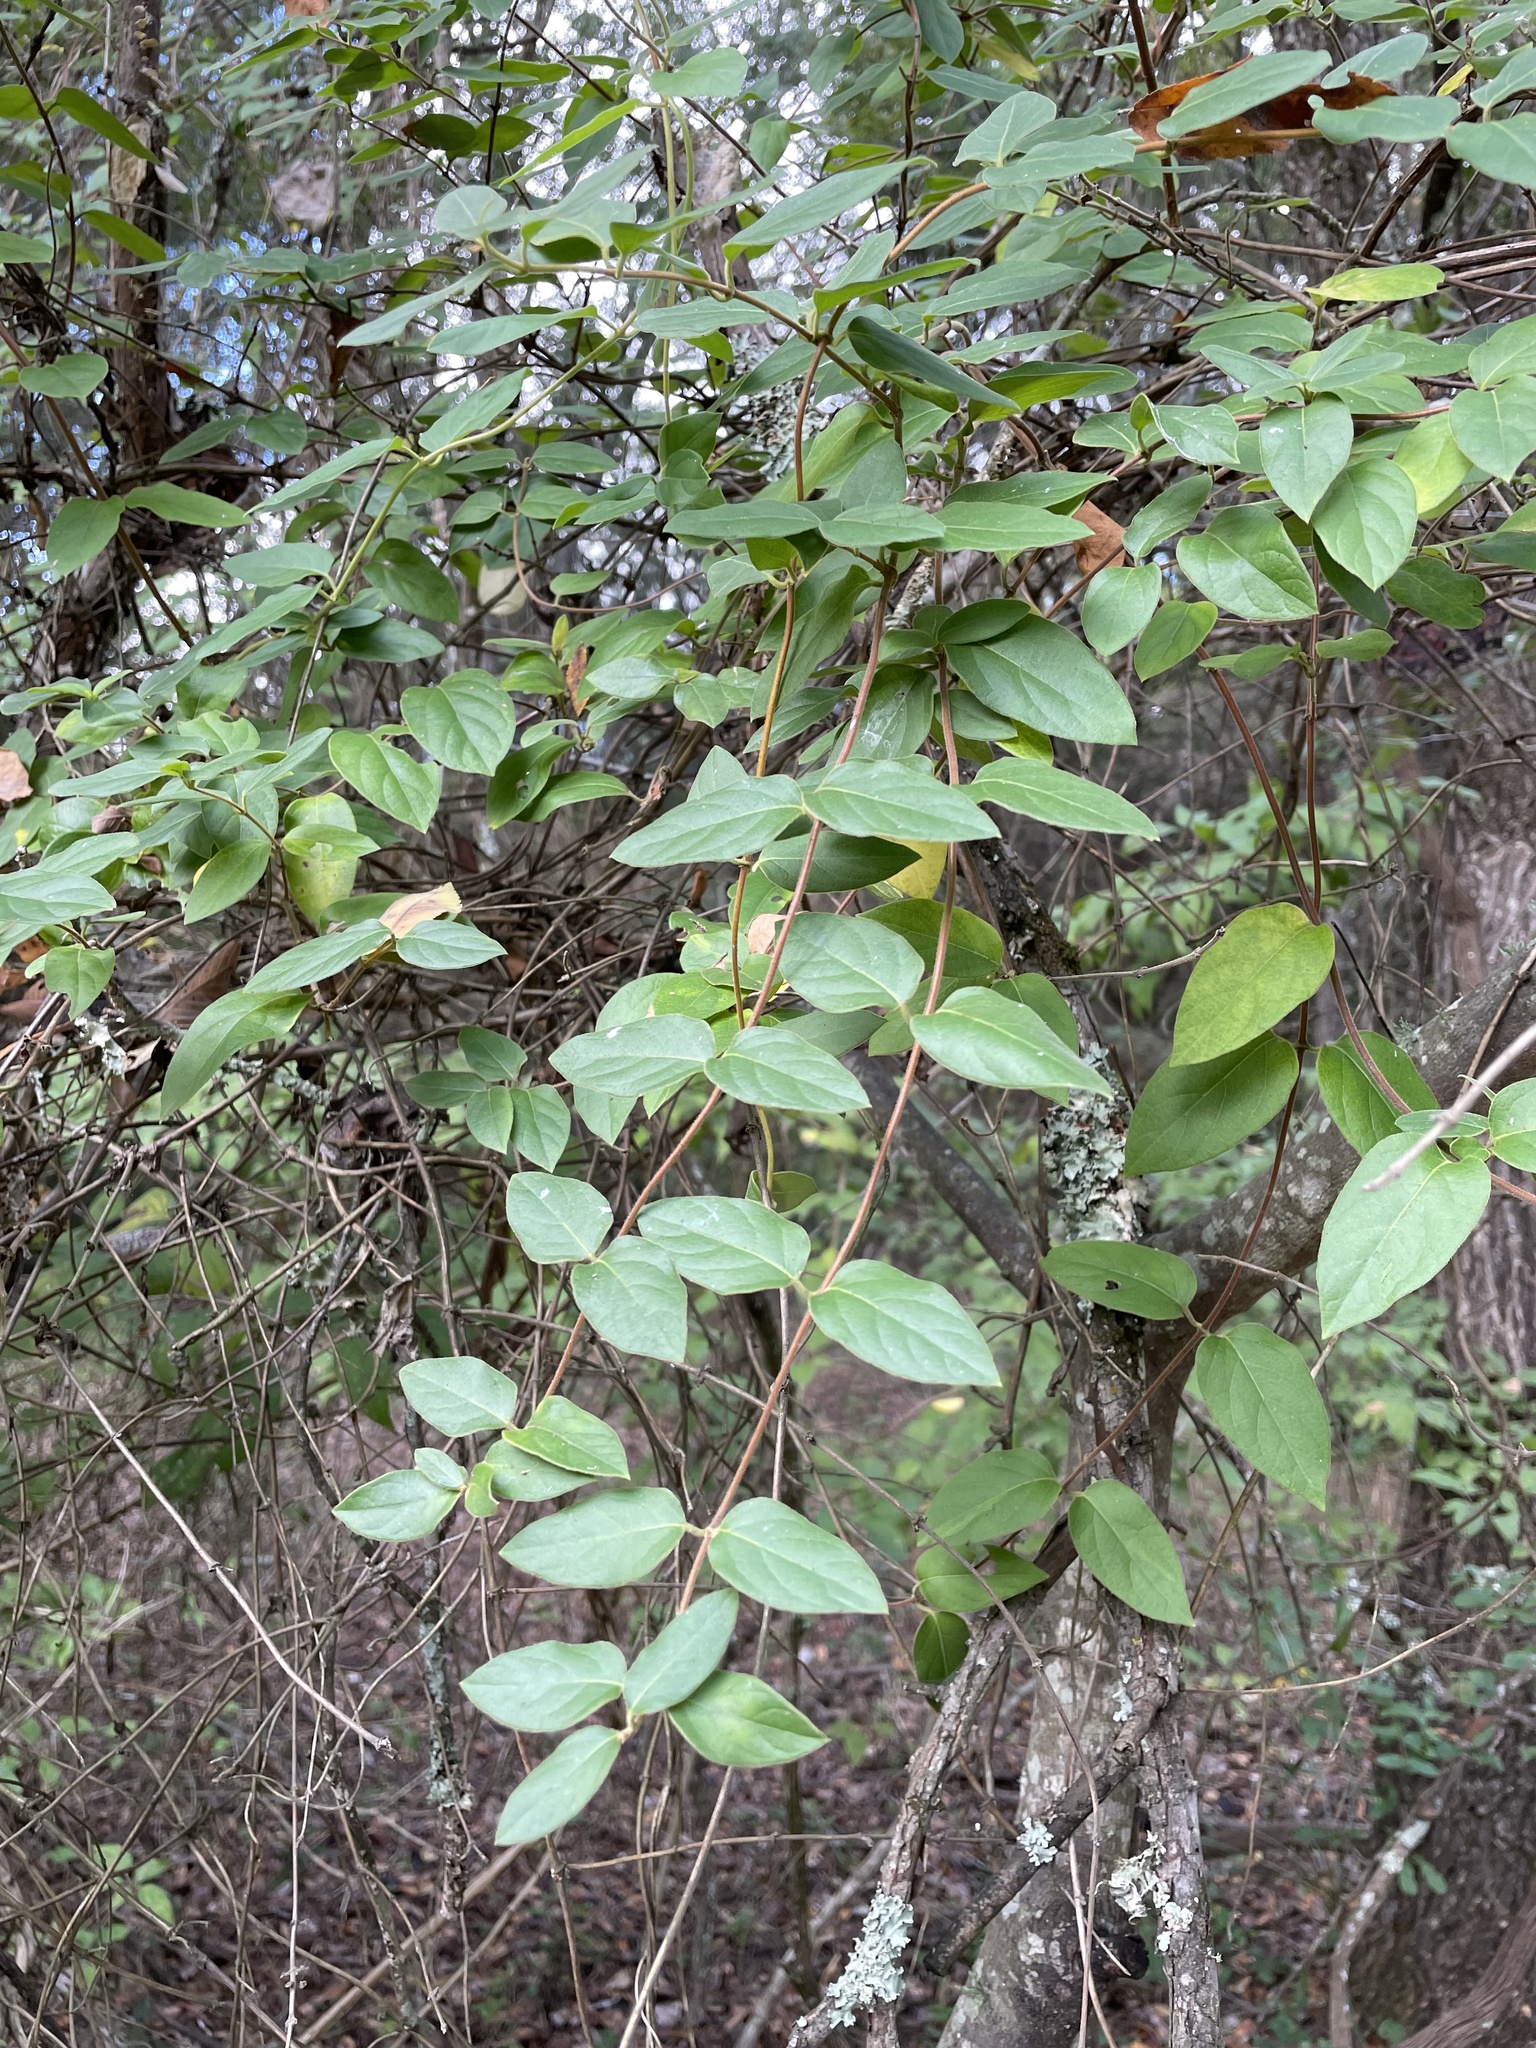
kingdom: Plantae
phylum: Tracheophyta
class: Magnoliopsida
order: Dipsacales
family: Caprifoliaceae
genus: Lonicera
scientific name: Lonicera japonica
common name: Japanese honeysuckle
